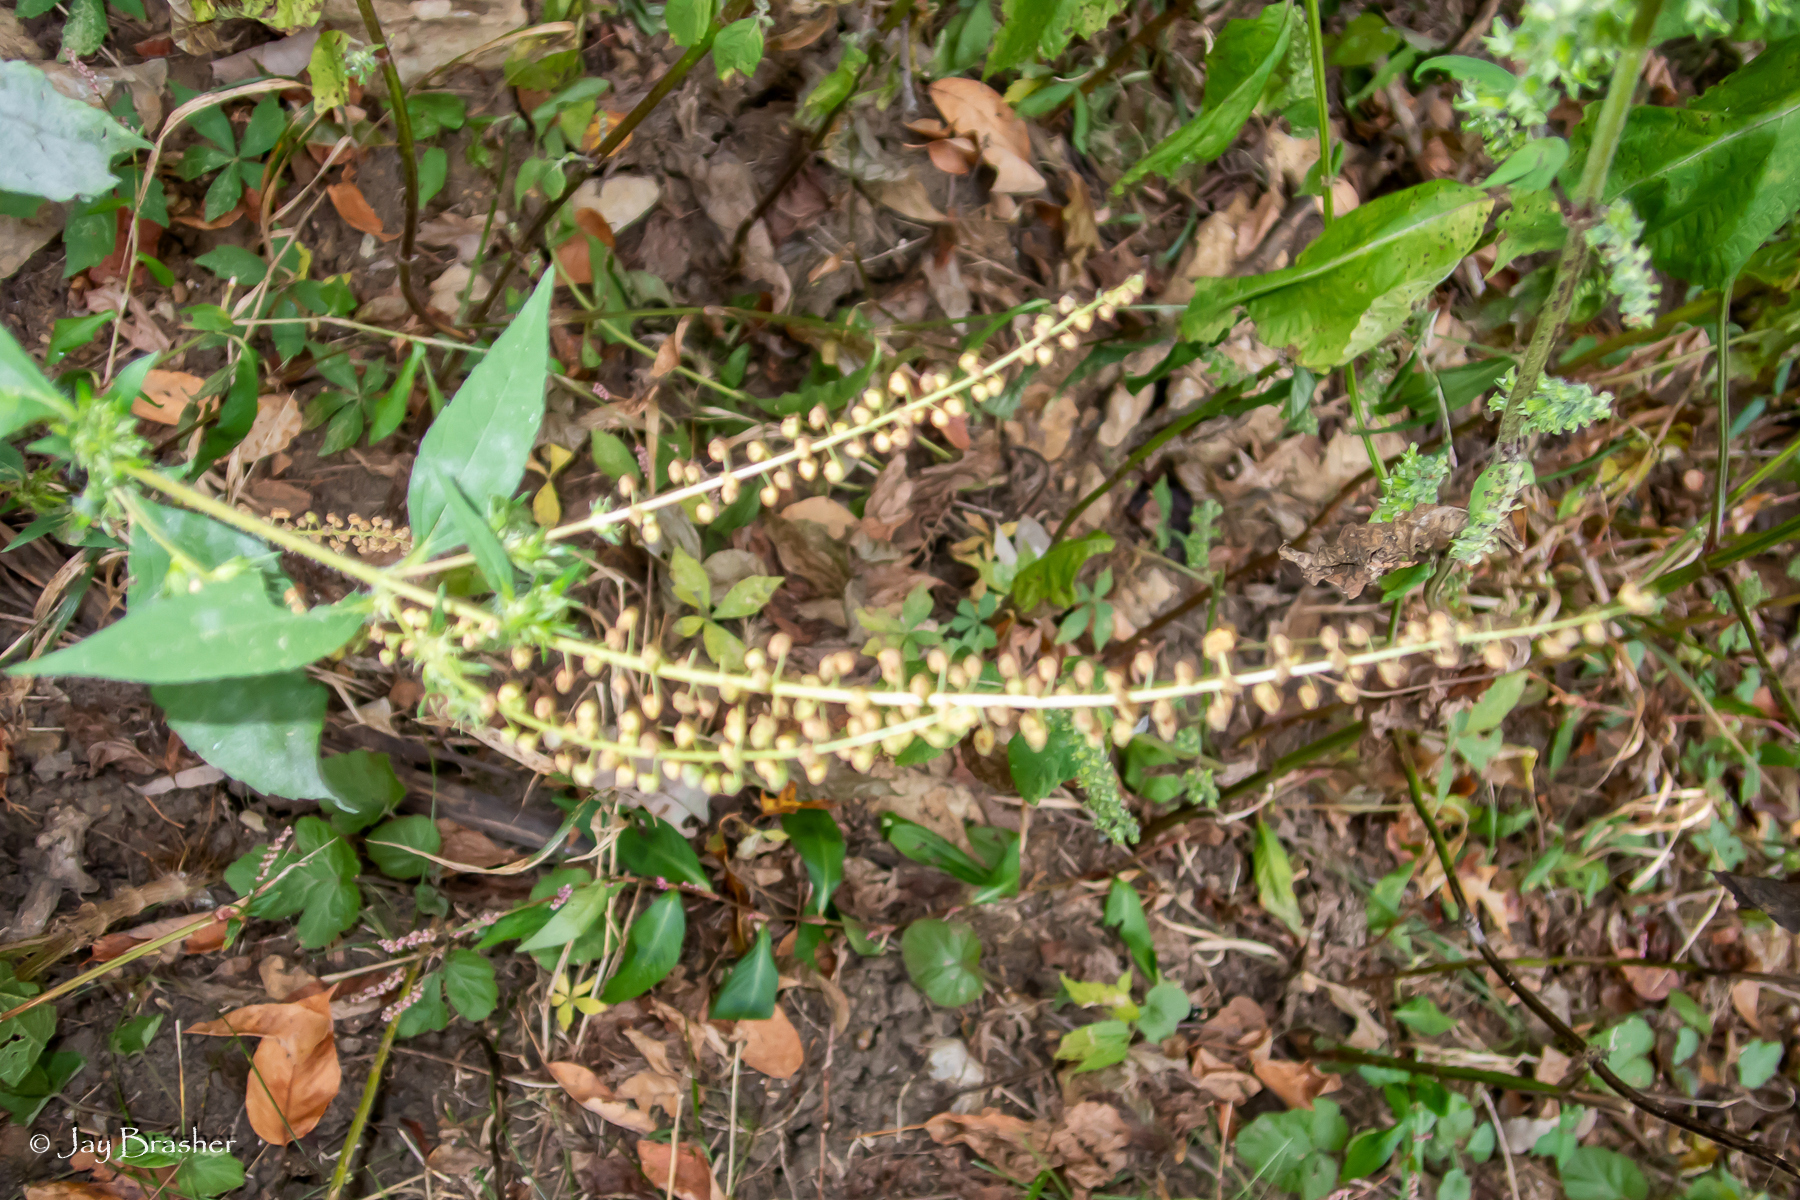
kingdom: Plantae
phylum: Tracheophyta
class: Magnoliopsida
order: Asterales
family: Asteraceae
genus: Ambrosia
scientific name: Ambrosia trifida
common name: Giant ragweed
